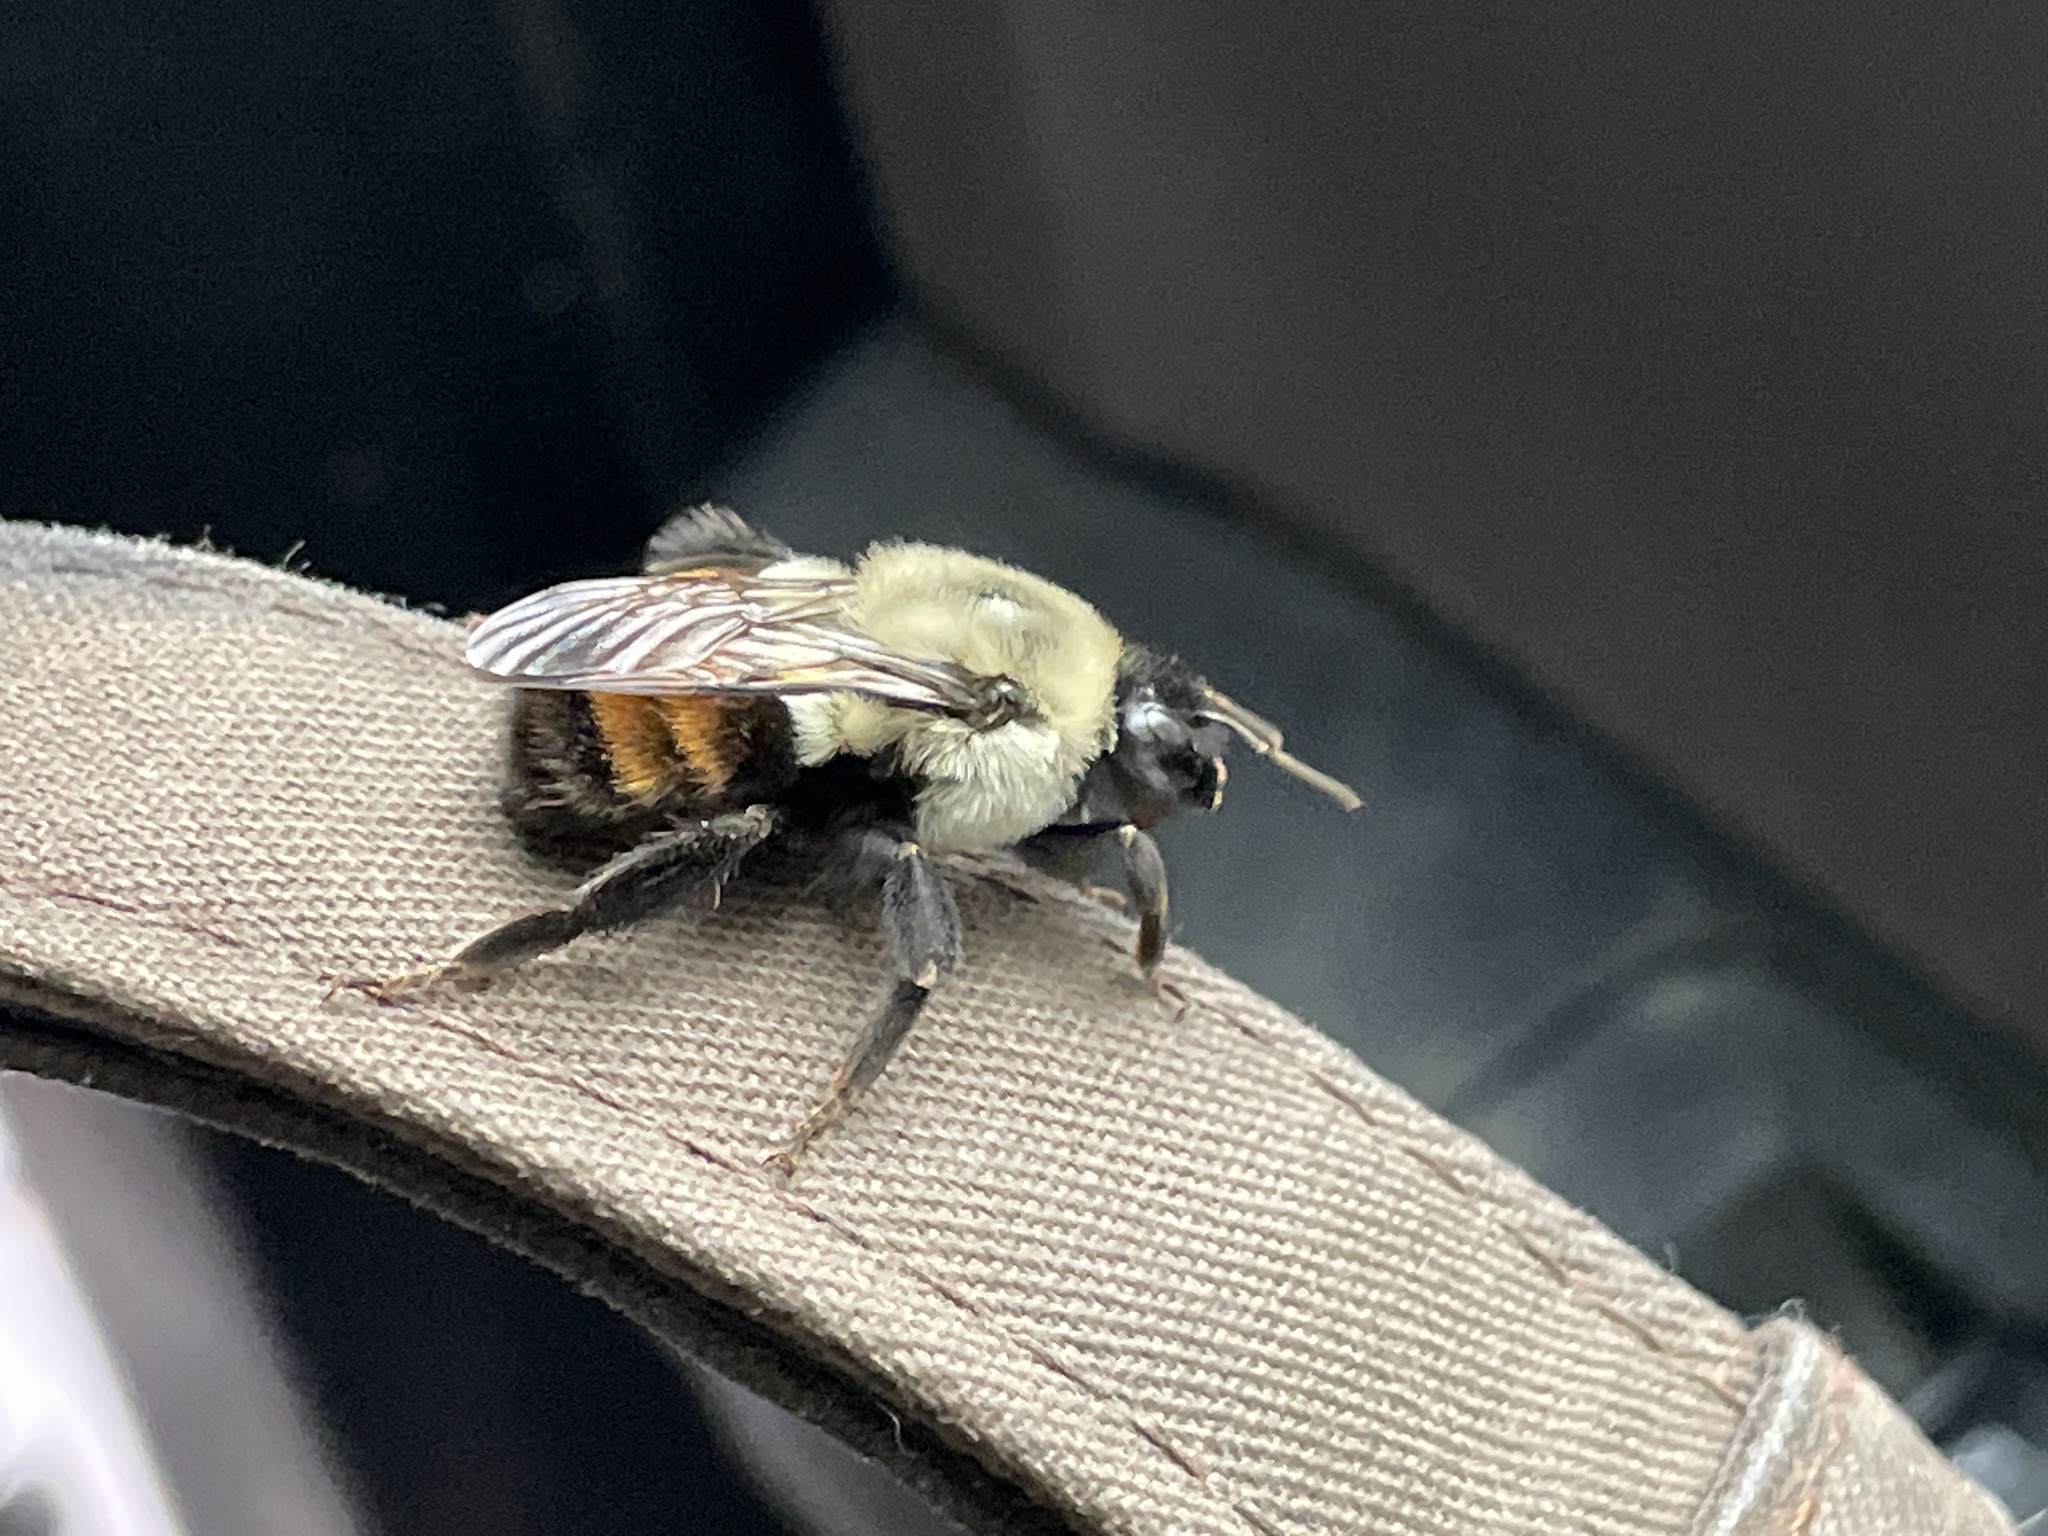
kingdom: Animalia
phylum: Arthropoda
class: Insecta
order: Hymenoptera
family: Apidae
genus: Bombus
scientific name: Bombus impatiens
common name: Common eastern bumble bee
